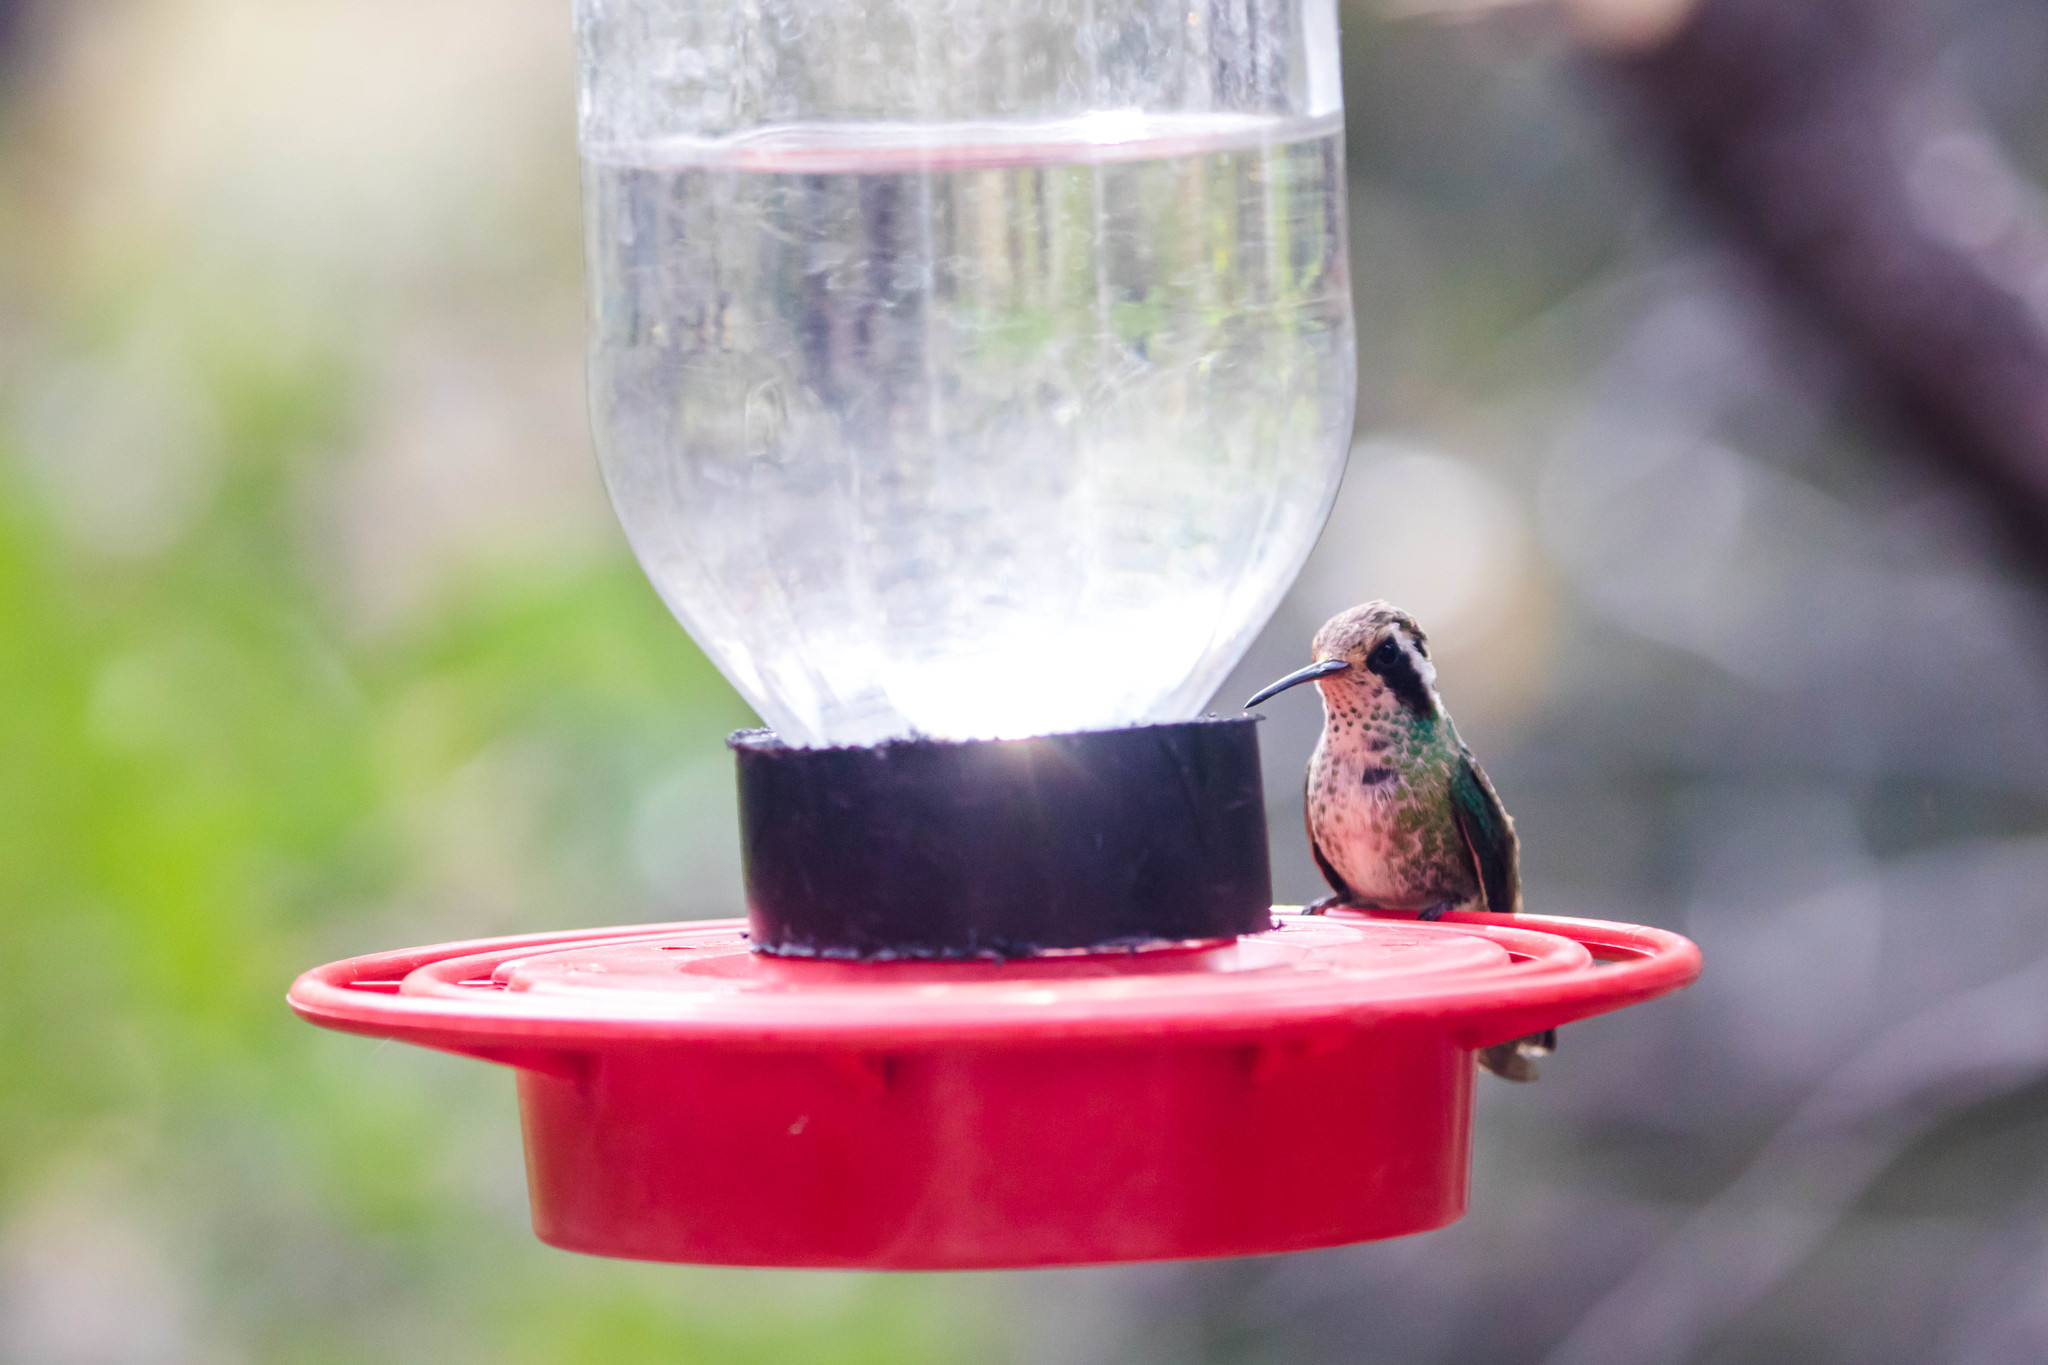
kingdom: Animalia
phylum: Chordata
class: Aves
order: Apodiformes
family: Trochilidae
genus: Basilinna
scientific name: Basilinna leucotis
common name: White-eared hummingbird
